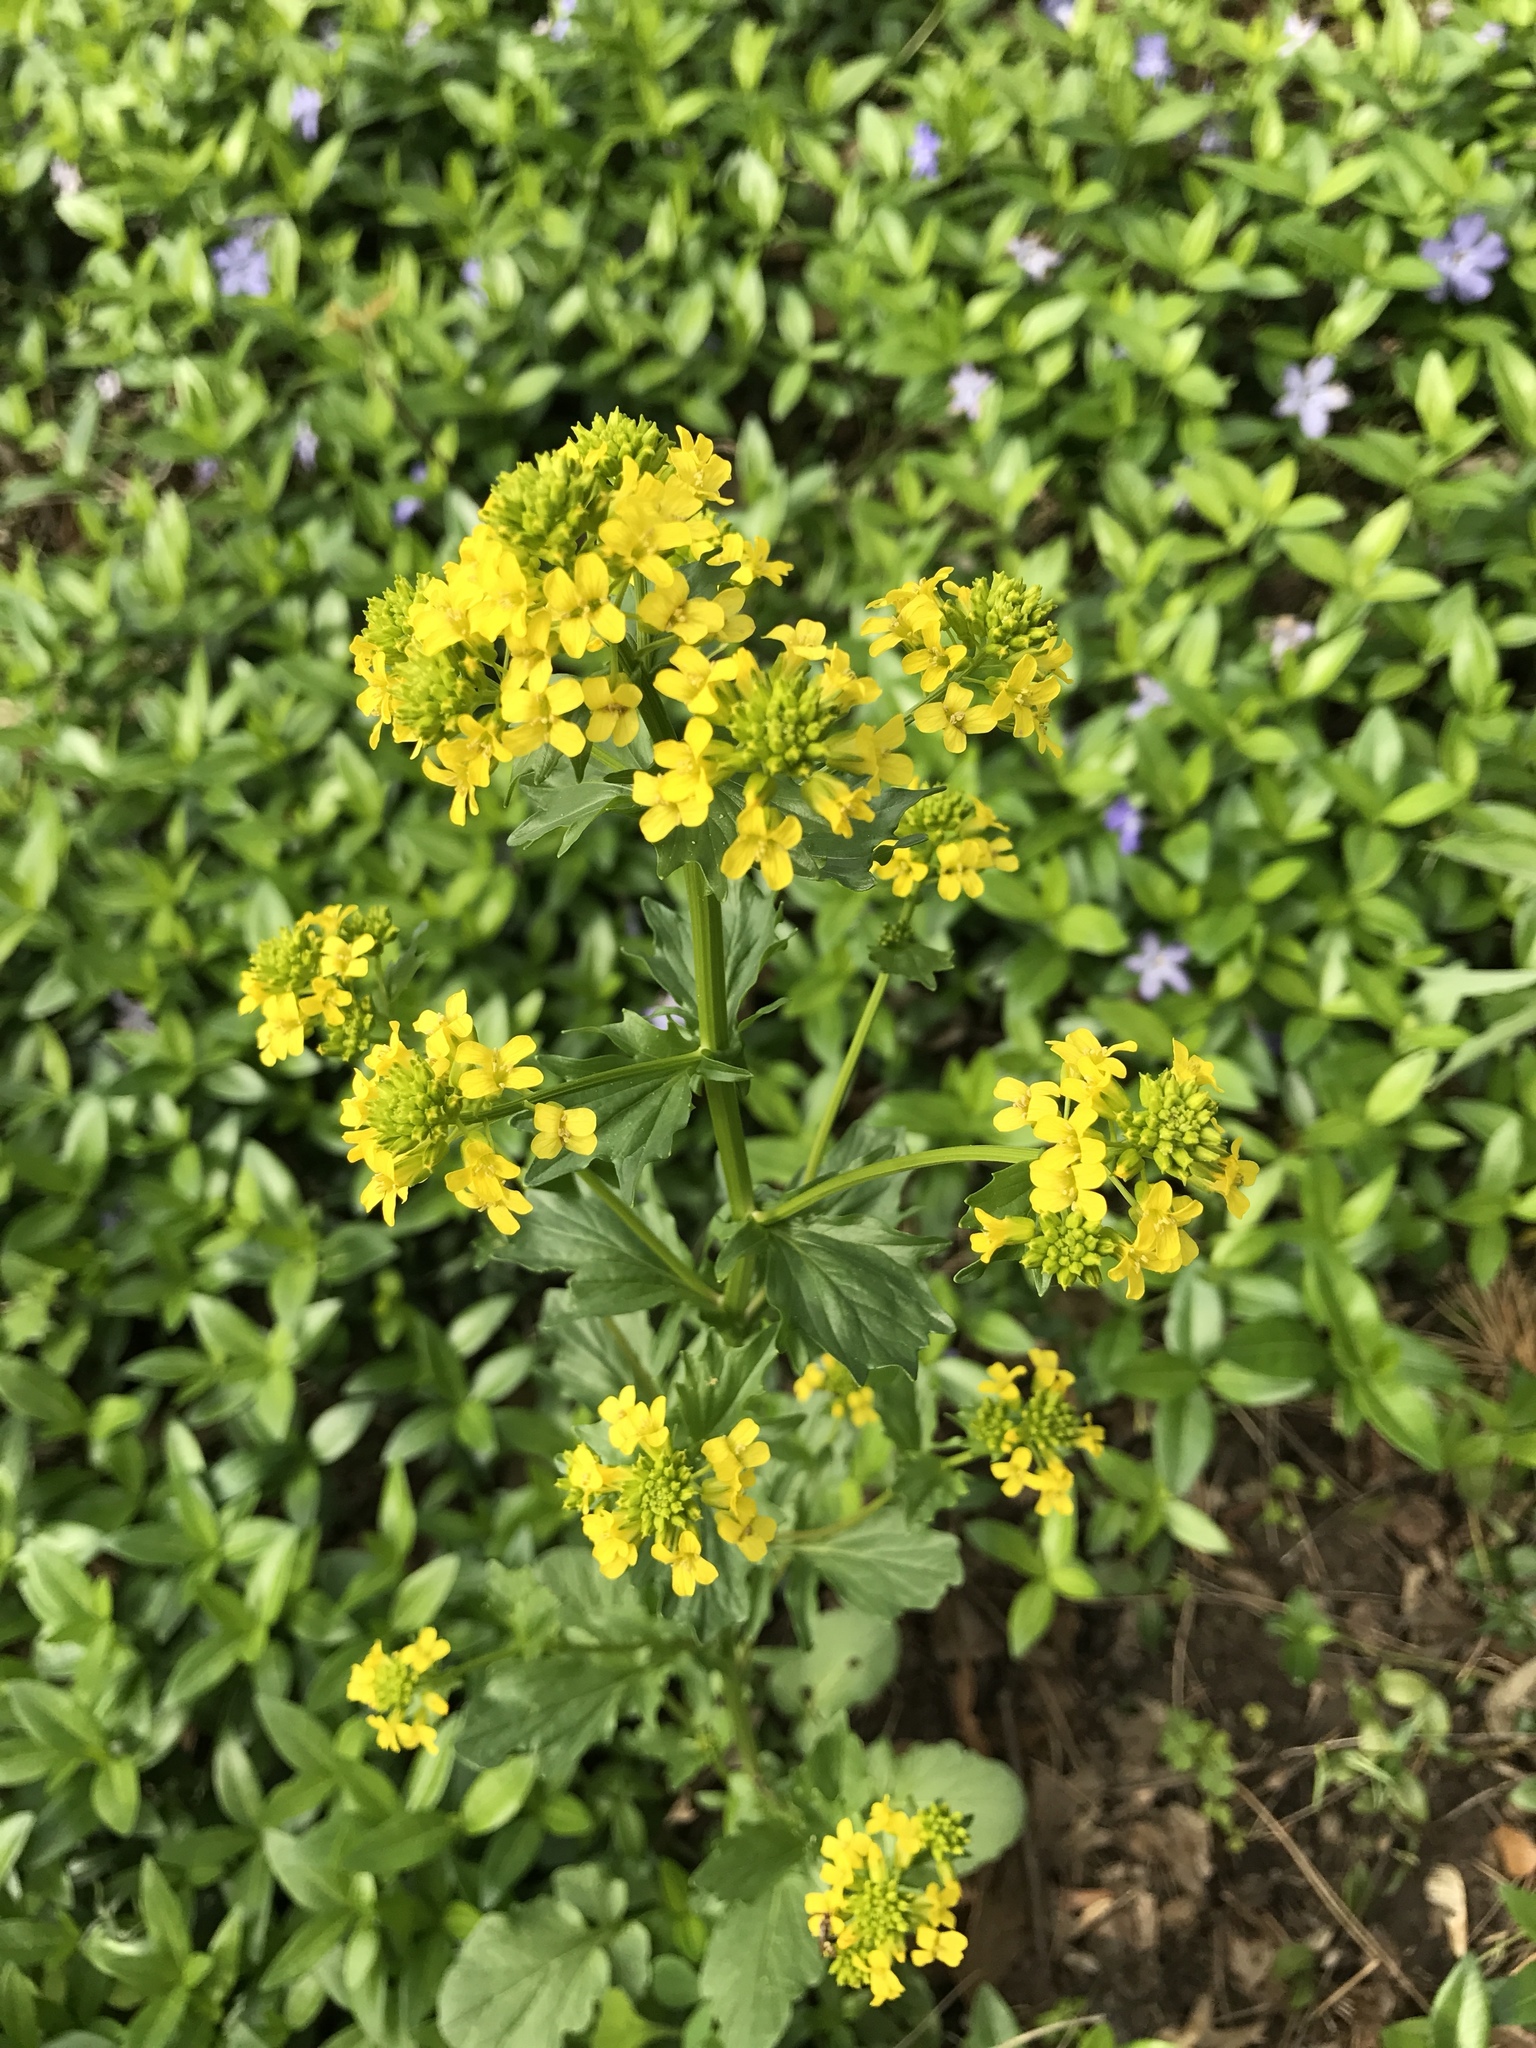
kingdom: Plantae
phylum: Tracheophyta
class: Magnoliopsida
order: Brassicales
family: Brassicaceae
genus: Barbarea
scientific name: Barbarea vulgaris
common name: Cressy-greens
